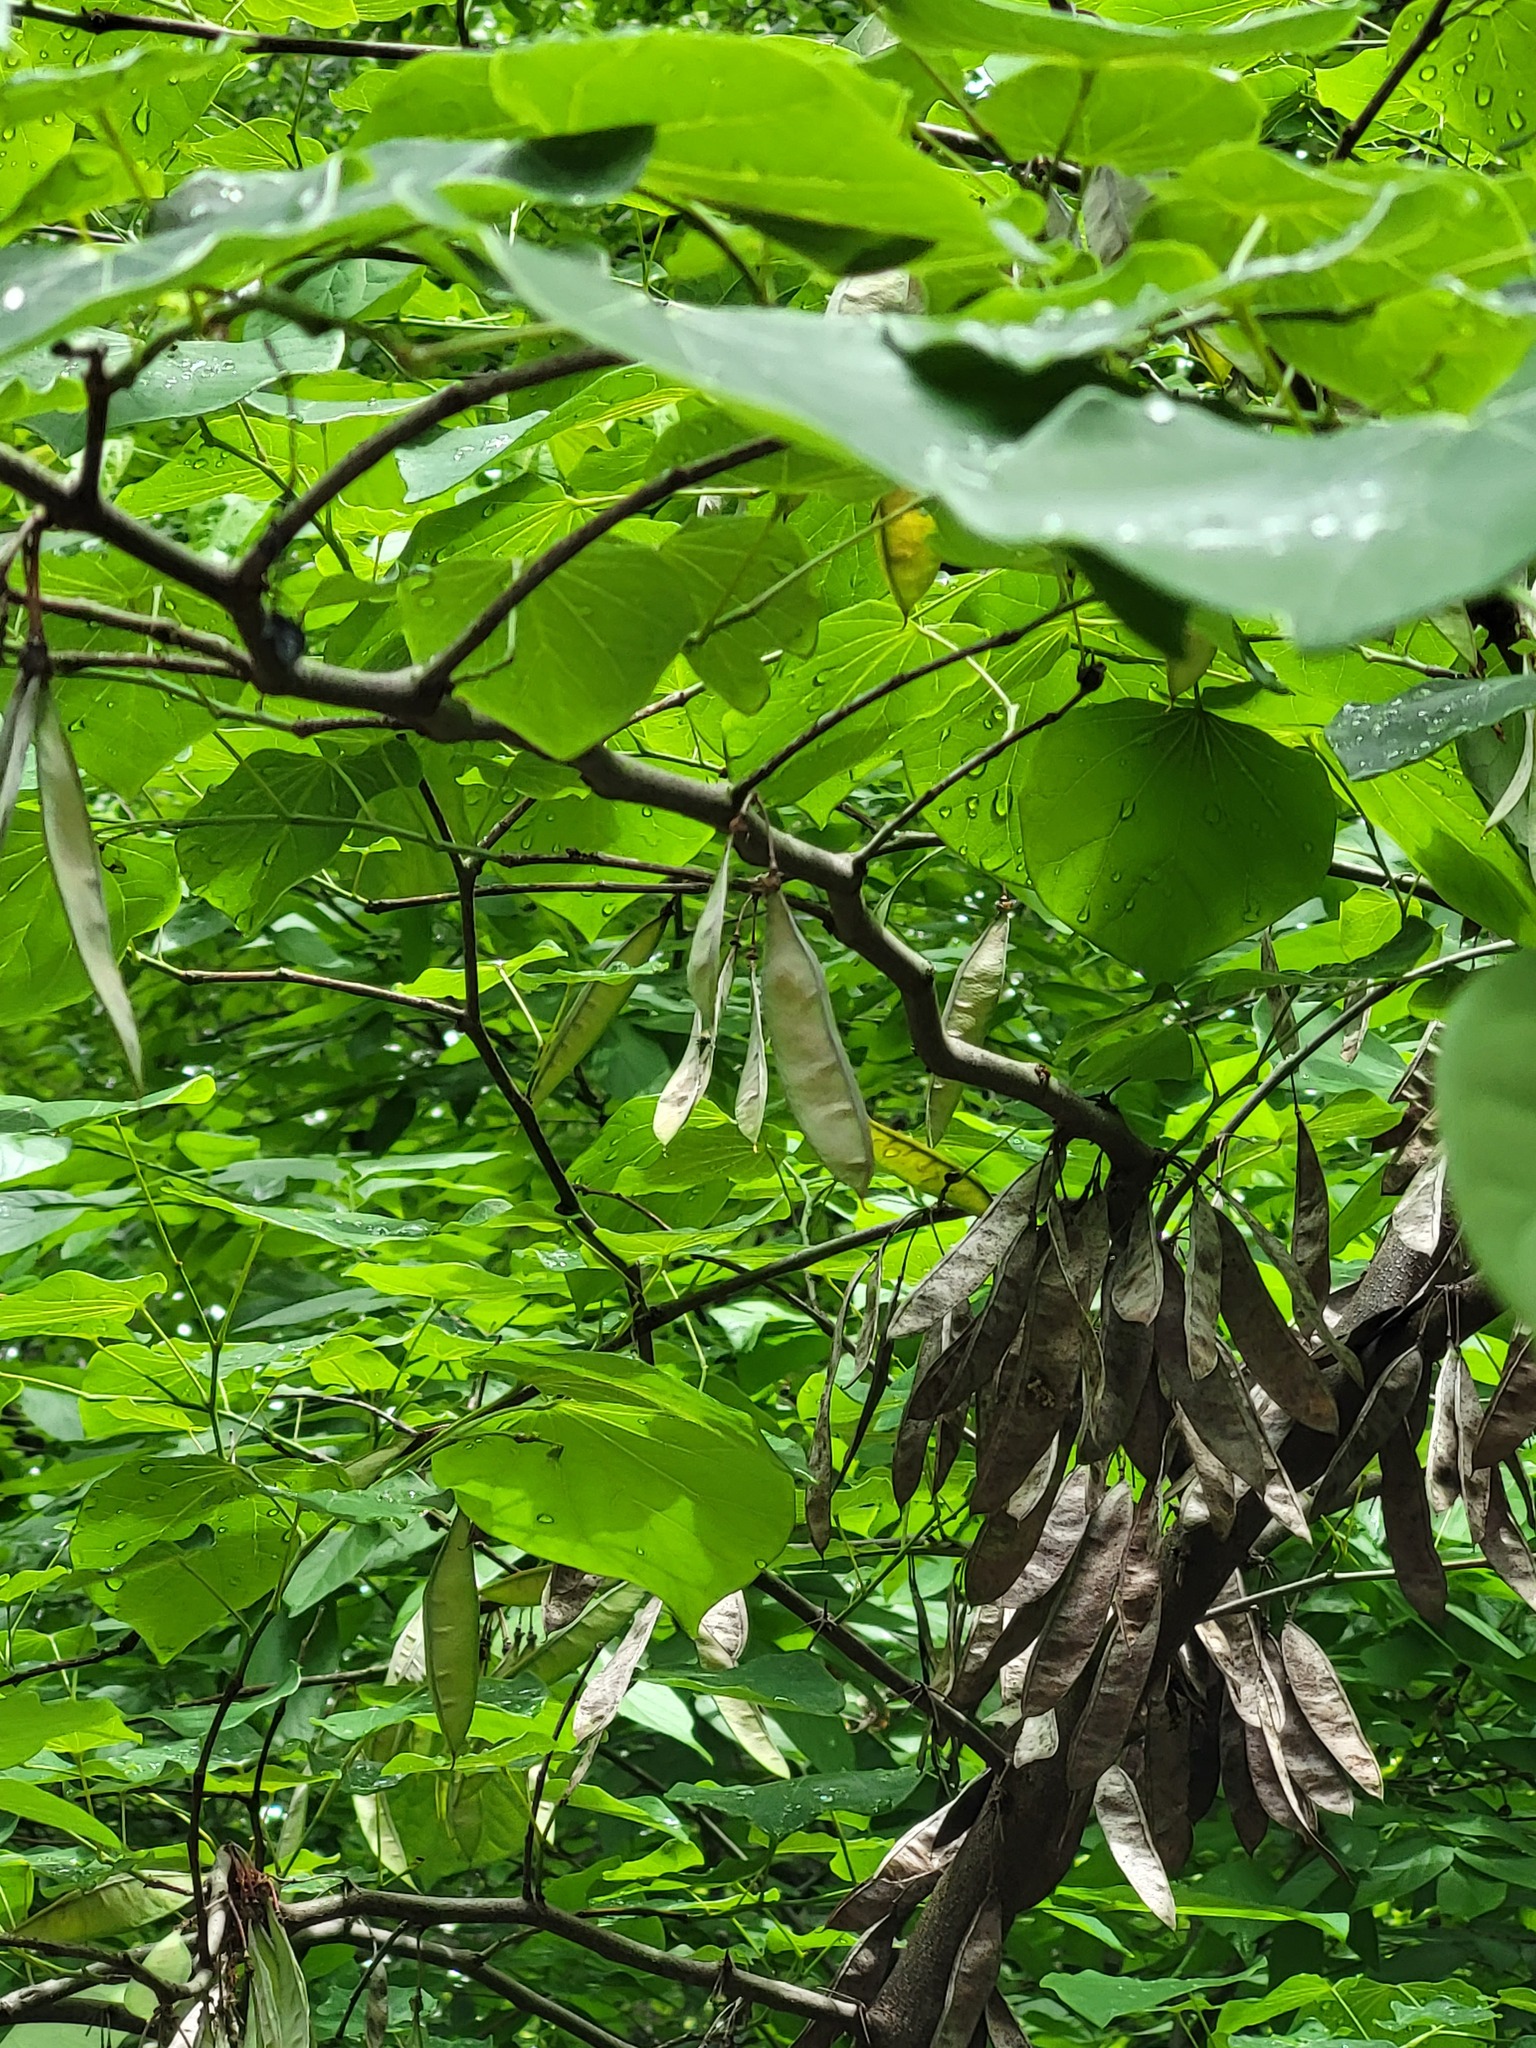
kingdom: Plantae
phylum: Tracheophyta
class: Magnoliopsida
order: Fabales
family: Fabaceae
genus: Cercis
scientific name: Cercis canadensis
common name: Eastern redbud
